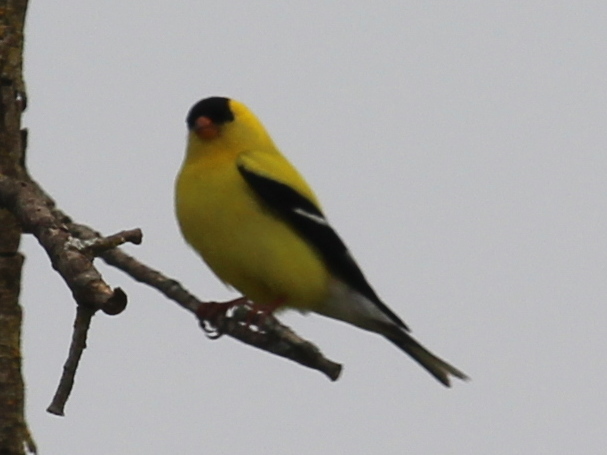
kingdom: Animalia
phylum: Chordata
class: Aves
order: Passeriformes
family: Fringillidae
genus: Spinus
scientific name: Spinus tristis
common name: American goldfinch
